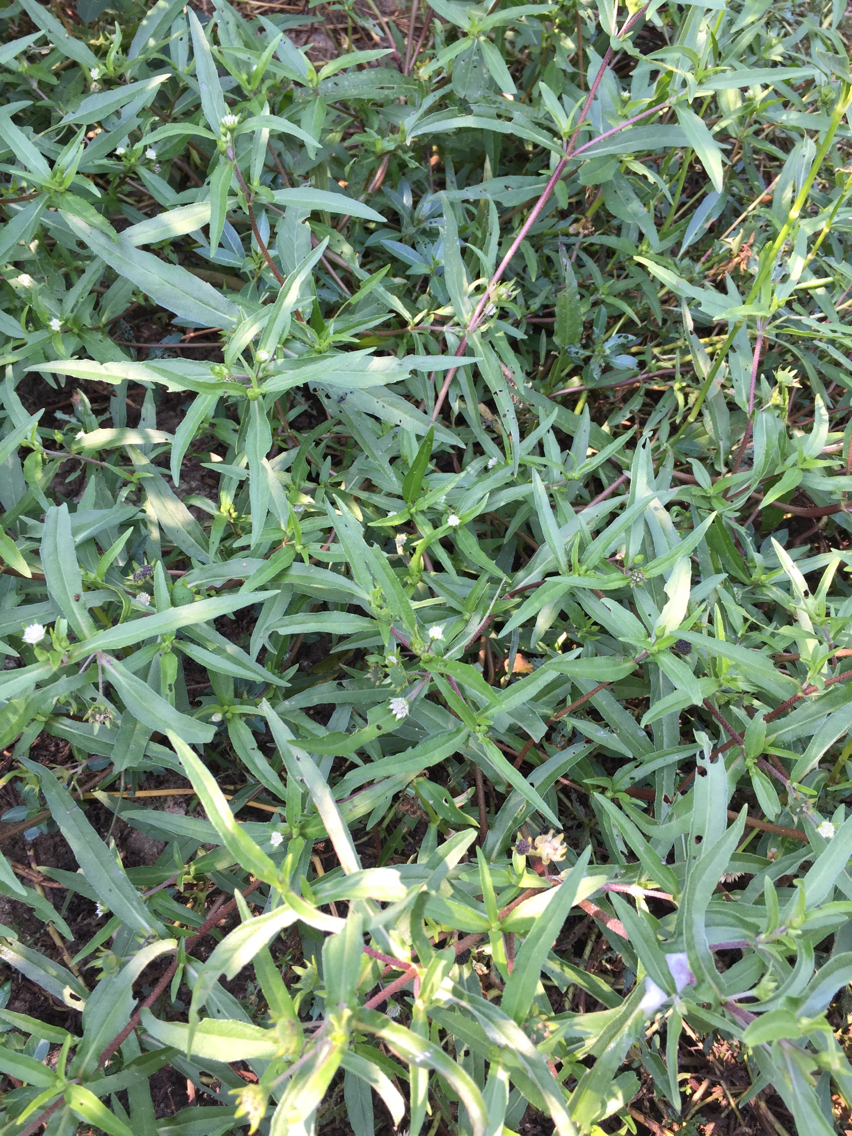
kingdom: Plantae
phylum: Tracheophyta
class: Magnoliopsida
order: Asterales
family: Asteraceae
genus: Eclipta
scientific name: Eclipta prostrata
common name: False daisy
